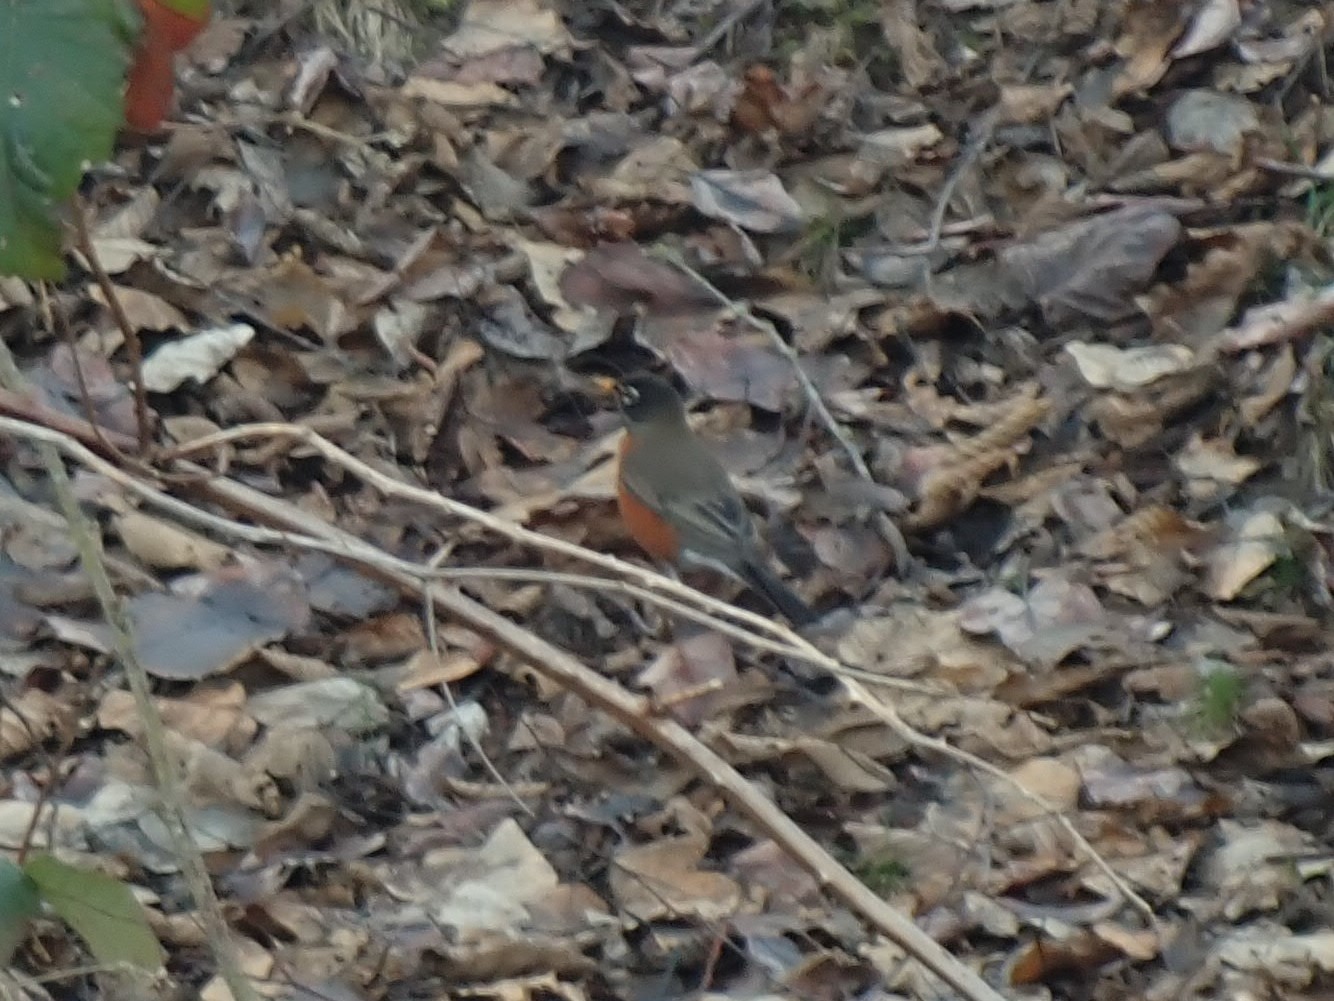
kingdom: Animalia
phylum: Chordata
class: Aves
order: Passeriformes
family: Turdidae
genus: Turdus
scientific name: Turdus migratorius
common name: American robin
